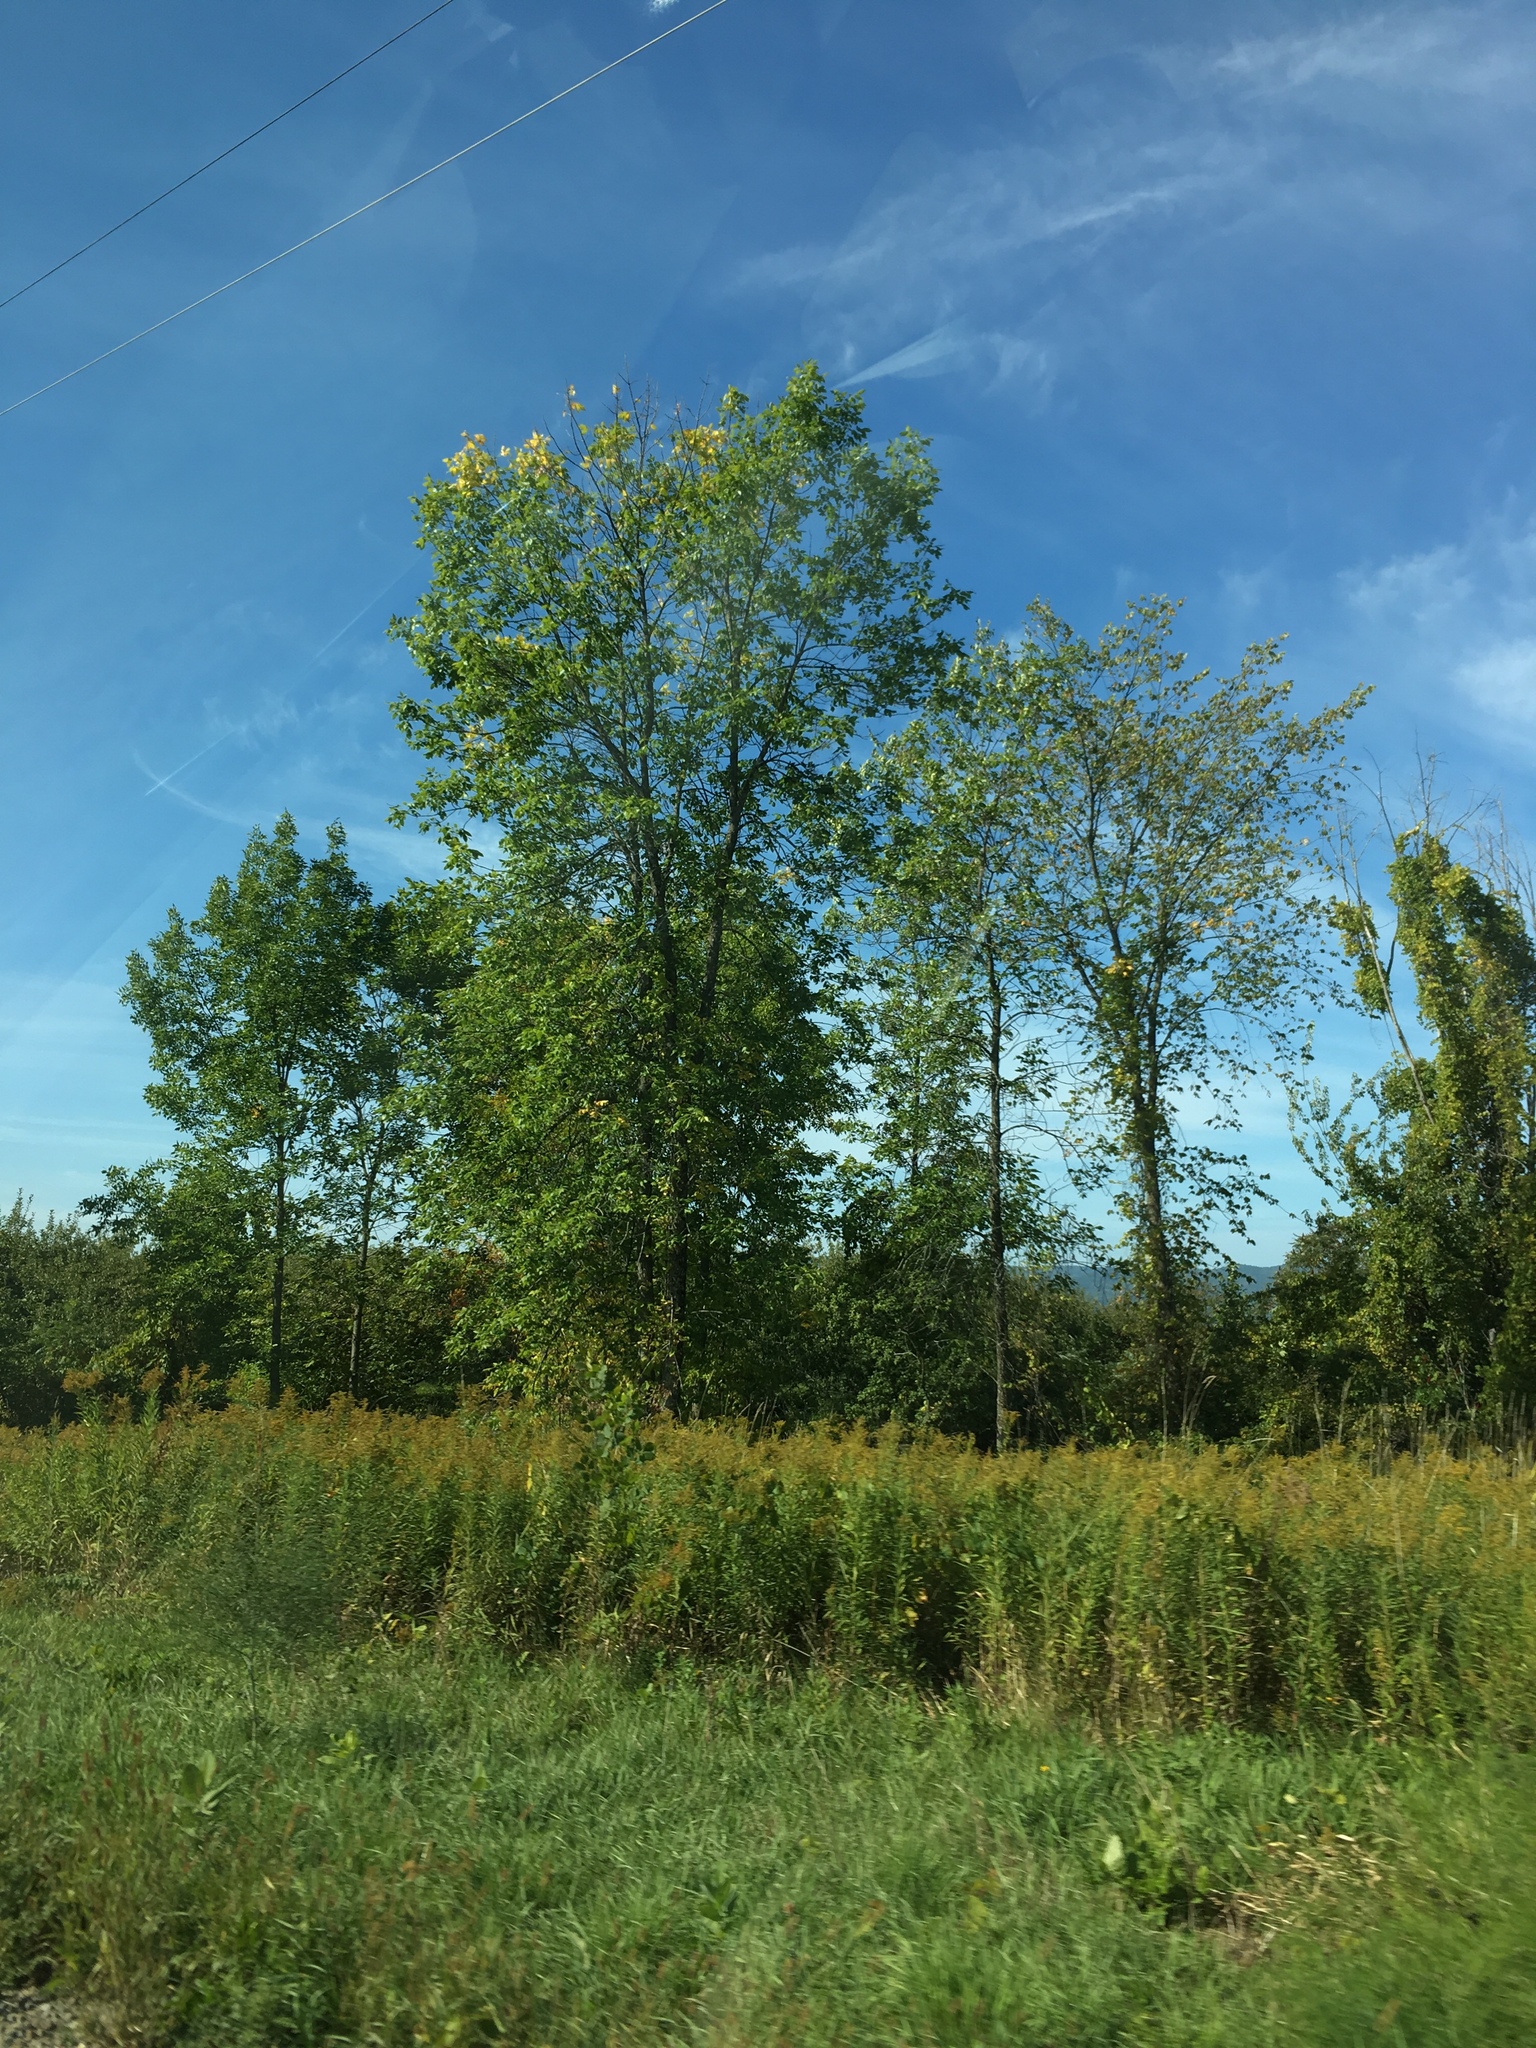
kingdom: Plantae
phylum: Tracheophyta
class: Magnoliopsida
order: Rosales
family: Ulmaceae
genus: Ulmus
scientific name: Ulmus americana
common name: American elm
